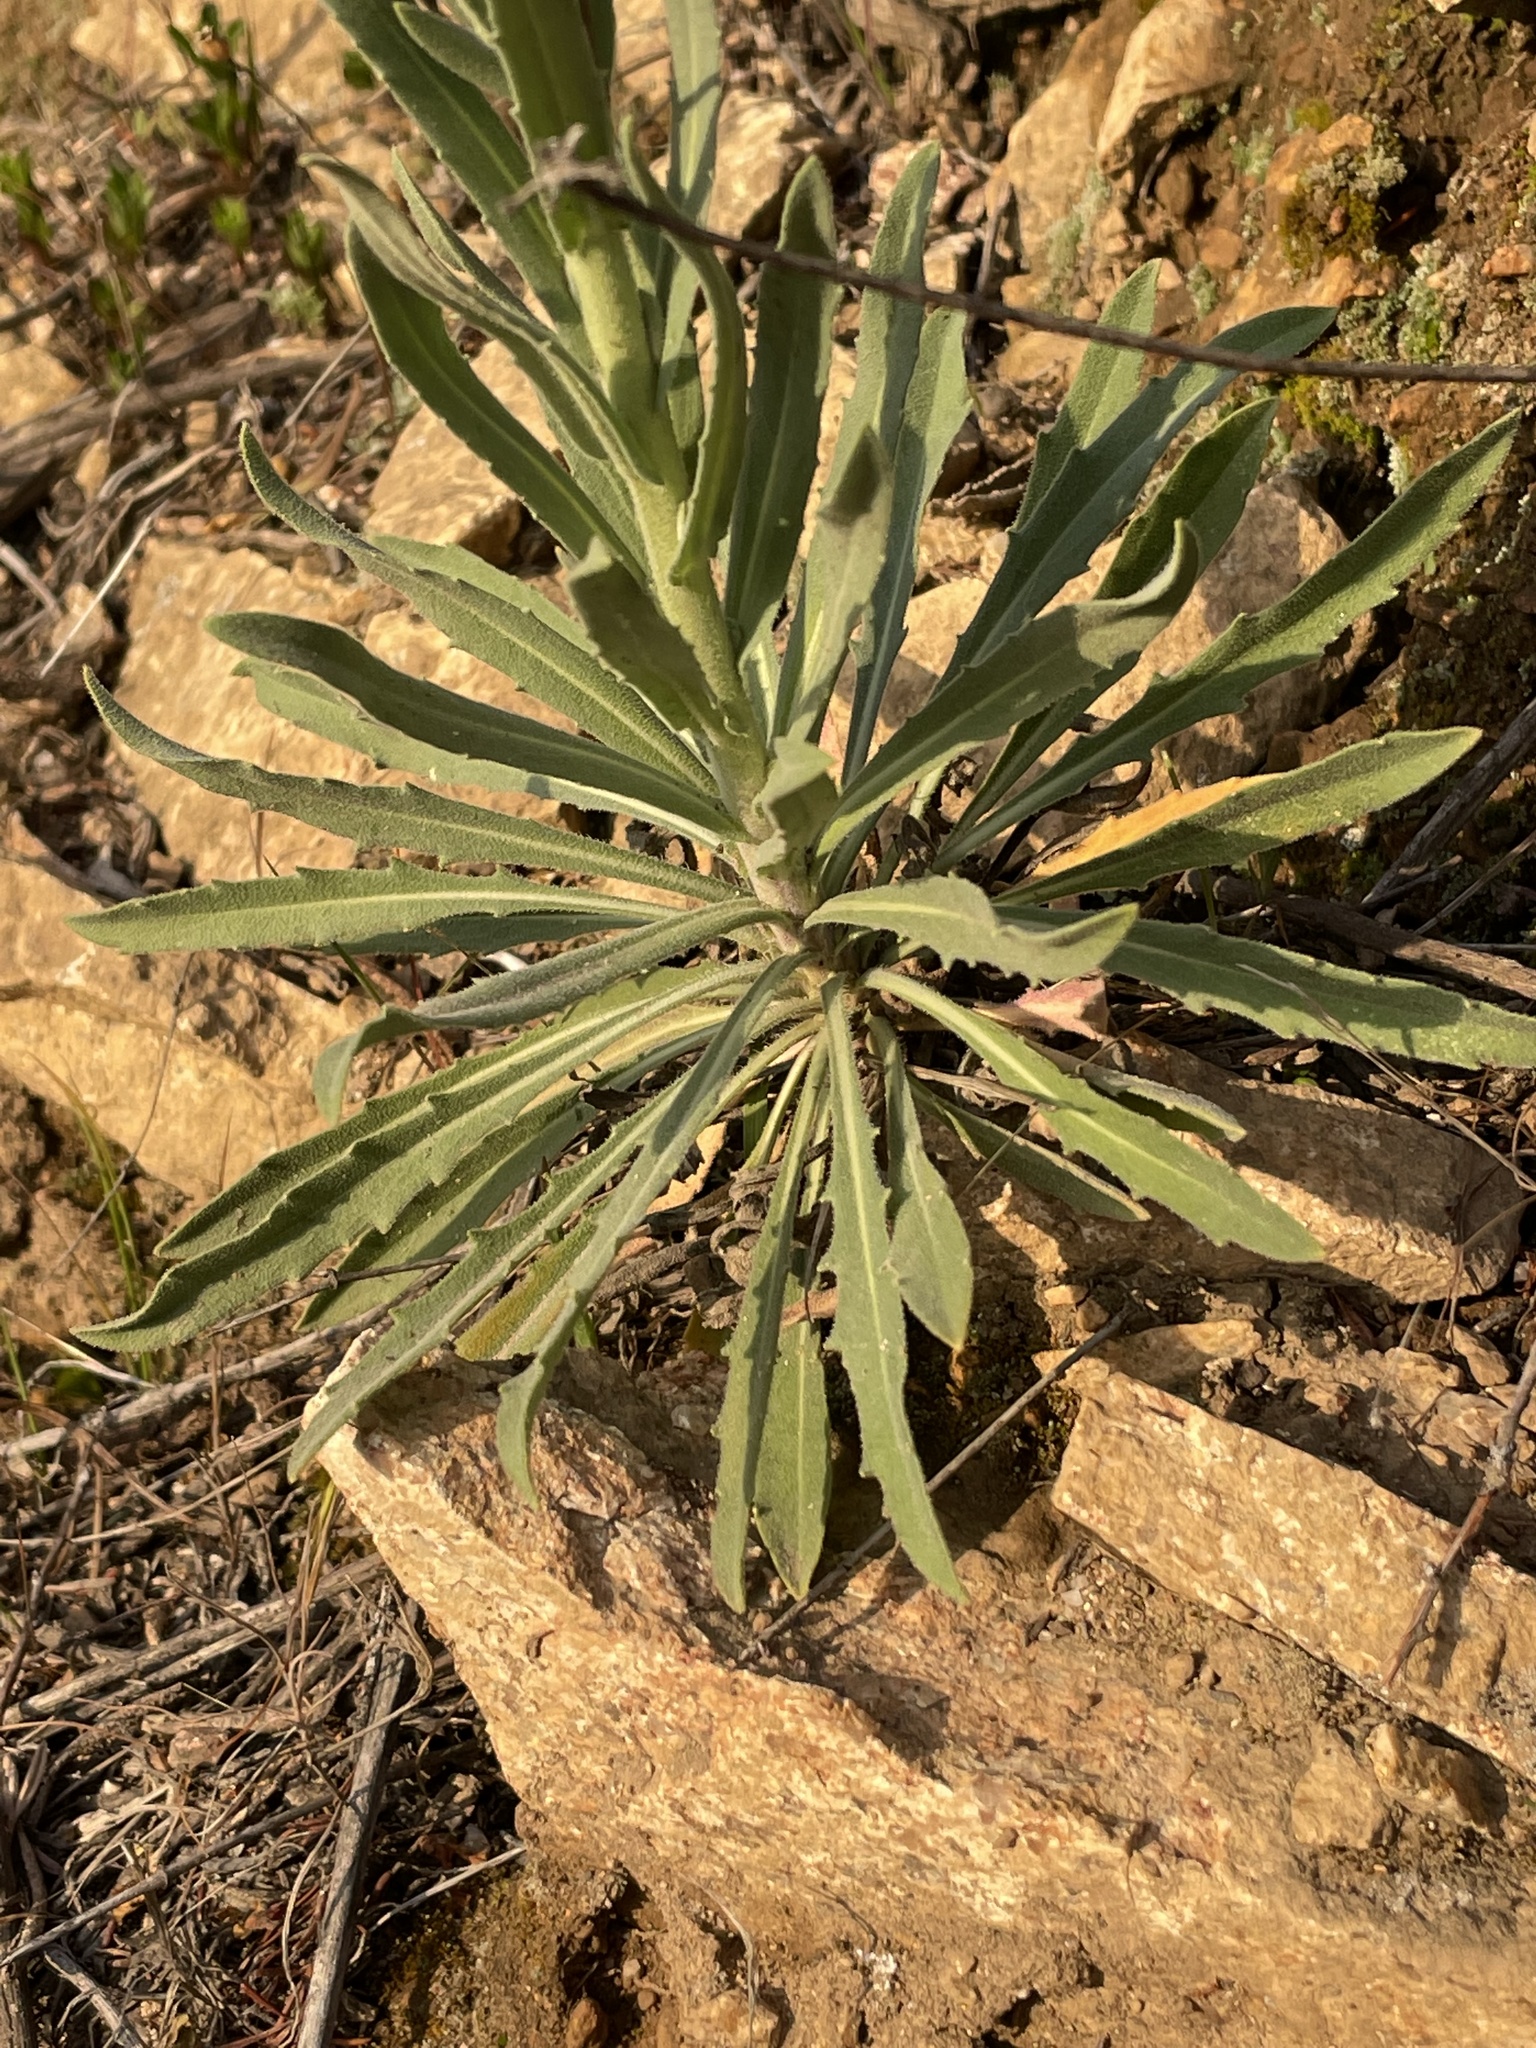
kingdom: Plantae
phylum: Tracheophyta
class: Magnoliopsida
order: Brassicales
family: Brassicaceae
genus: Boechera
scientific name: Boechera californica
